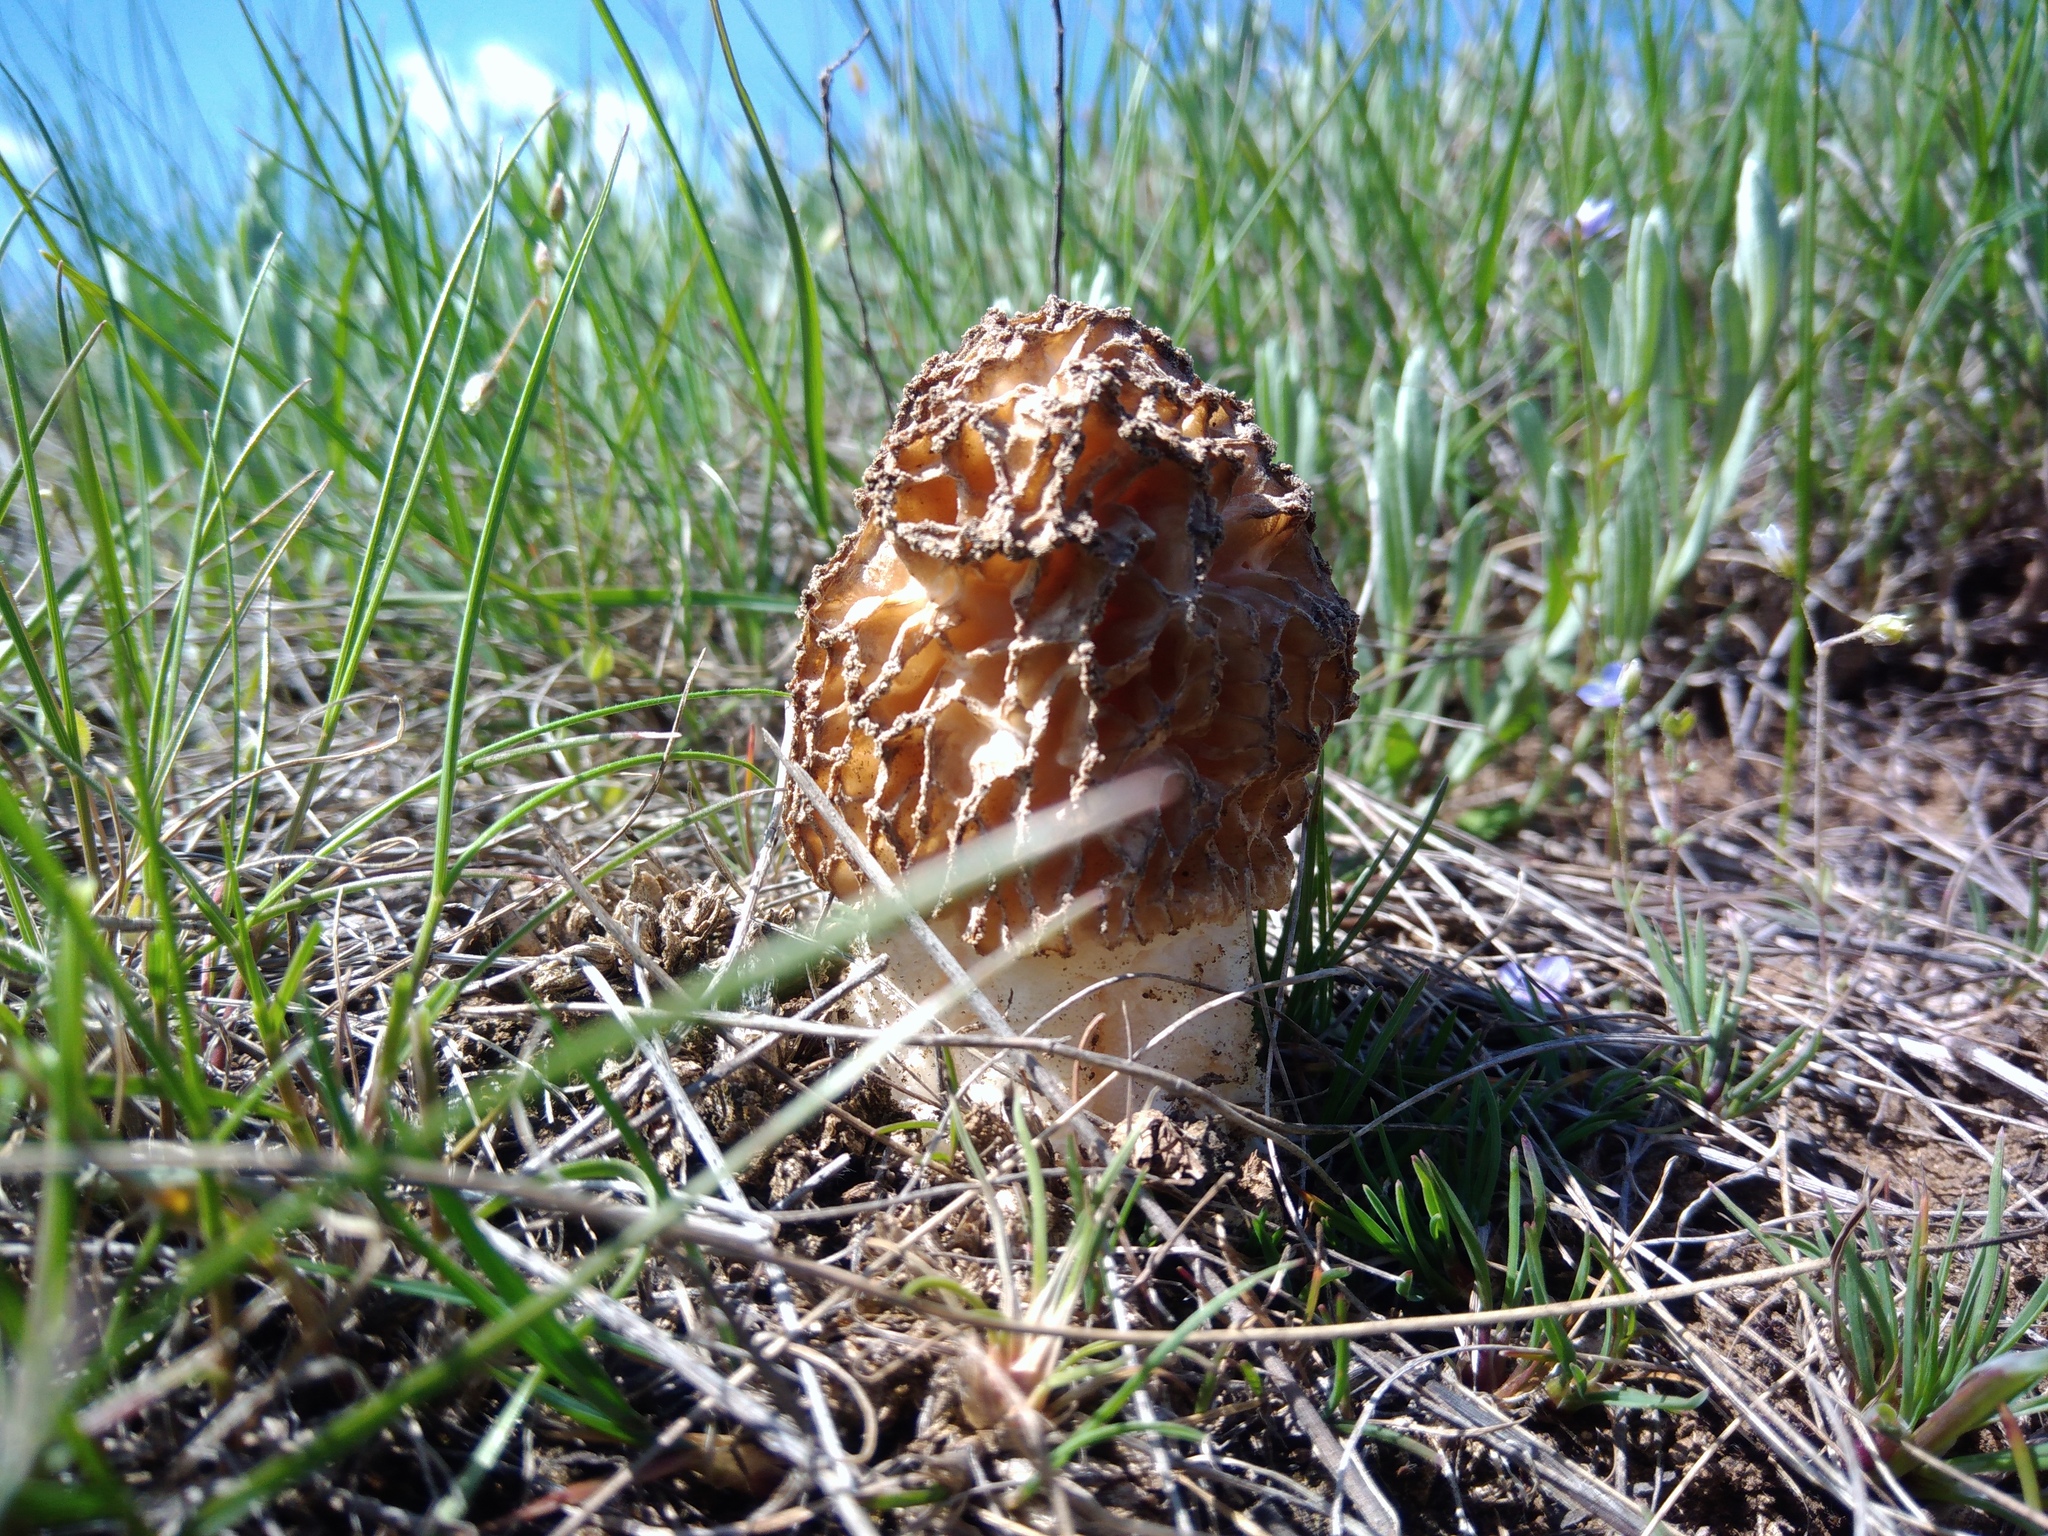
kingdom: Fungi
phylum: Ascomycota
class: Pezizomycetes
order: Pezizales
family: Morchellaceae
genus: Morchella
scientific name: Morchella steppicola
